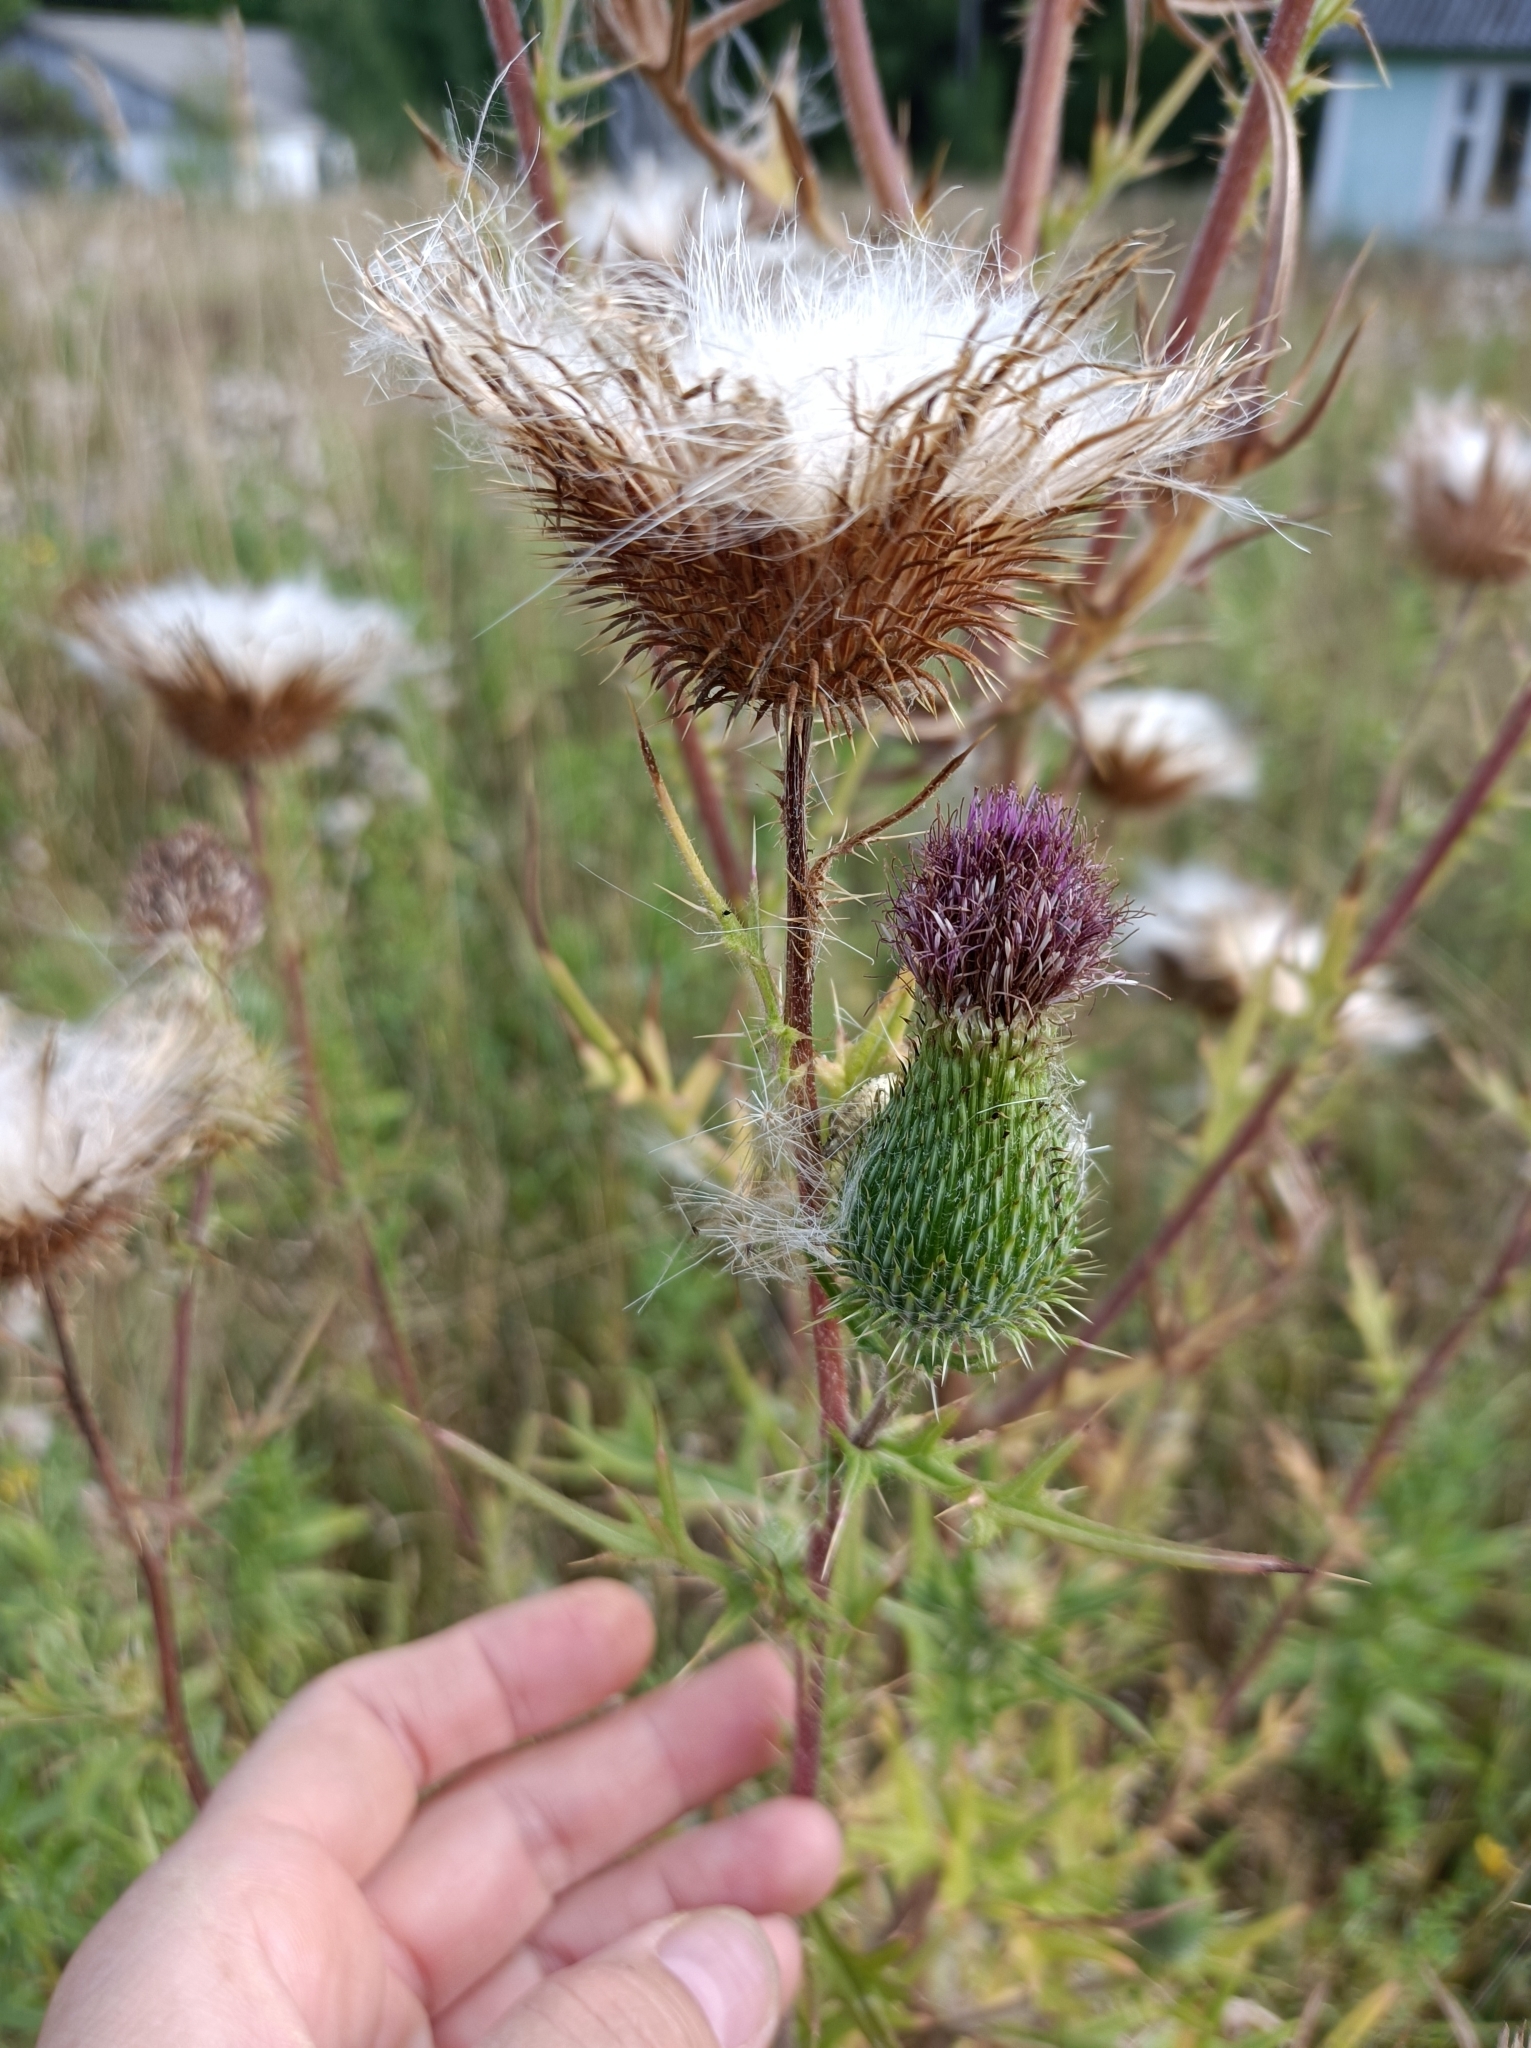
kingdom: Plantae
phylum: Tracheophyta
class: Magnoliopsida
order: Asterales
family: Asteraceae
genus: Cirsium
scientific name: Cirsium vulgare
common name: Bull thistle
